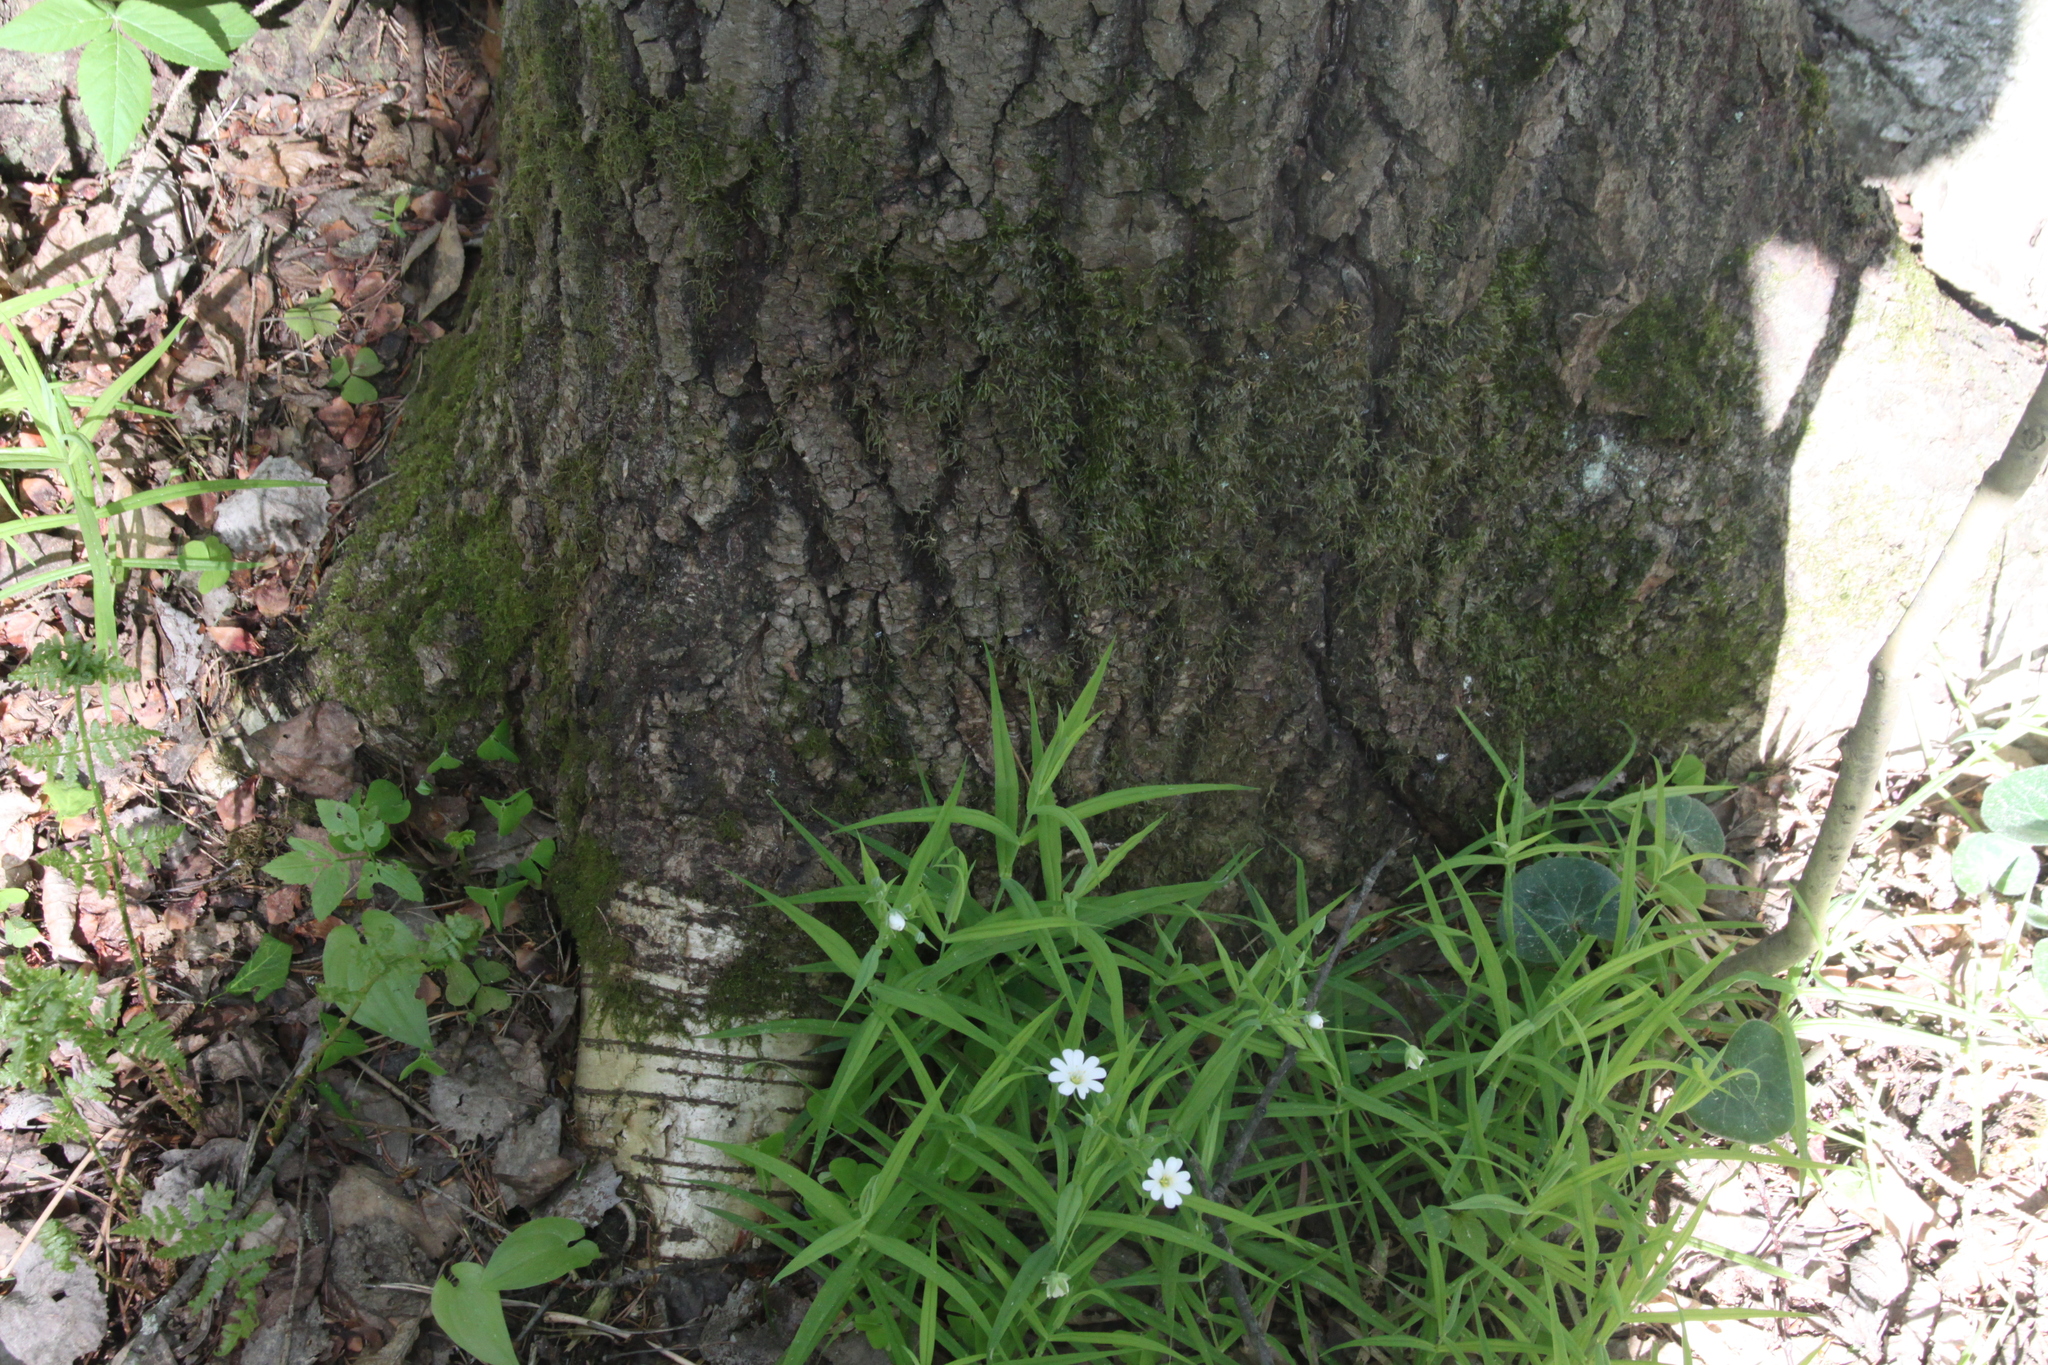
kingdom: Plantae
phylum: Tracheophyta
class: Magnoliopsida
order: Malpighiales
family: Salicaceae
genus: Populus
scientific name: Populus tremula
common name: European aspen
